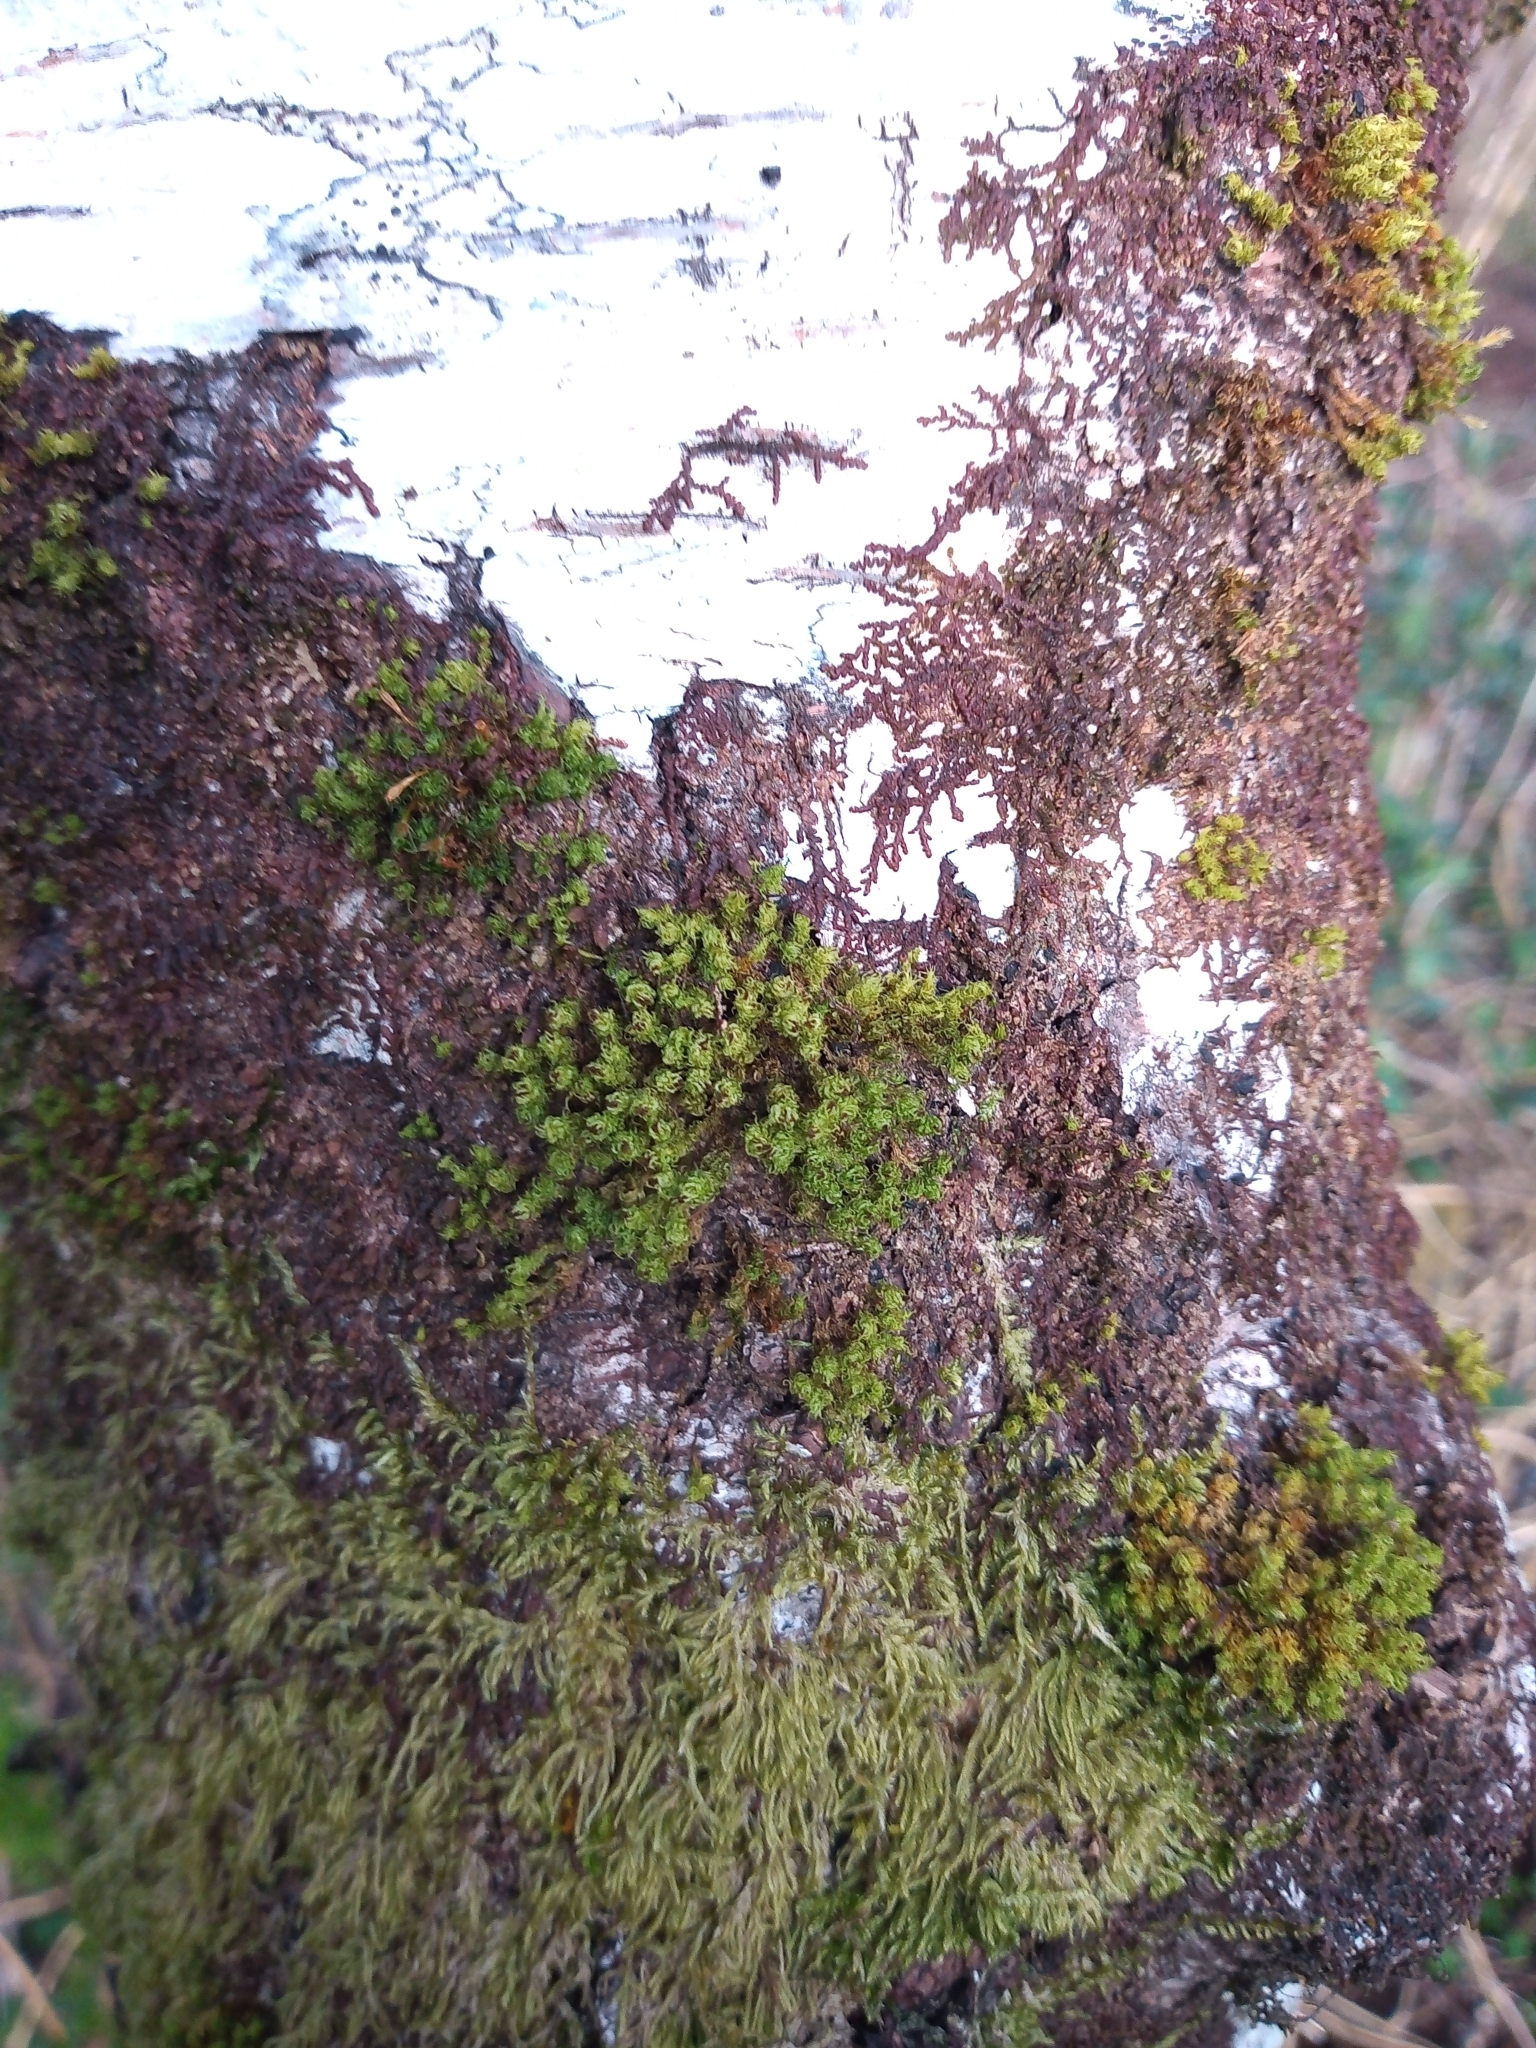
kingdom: Plantae
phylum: Bryophyta
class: Bryopsida
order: Orthotrichales
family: Orthotrichaceae
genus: Plenogemma
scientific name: Plenogemma phyllantha
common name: Frizzled pincushion
